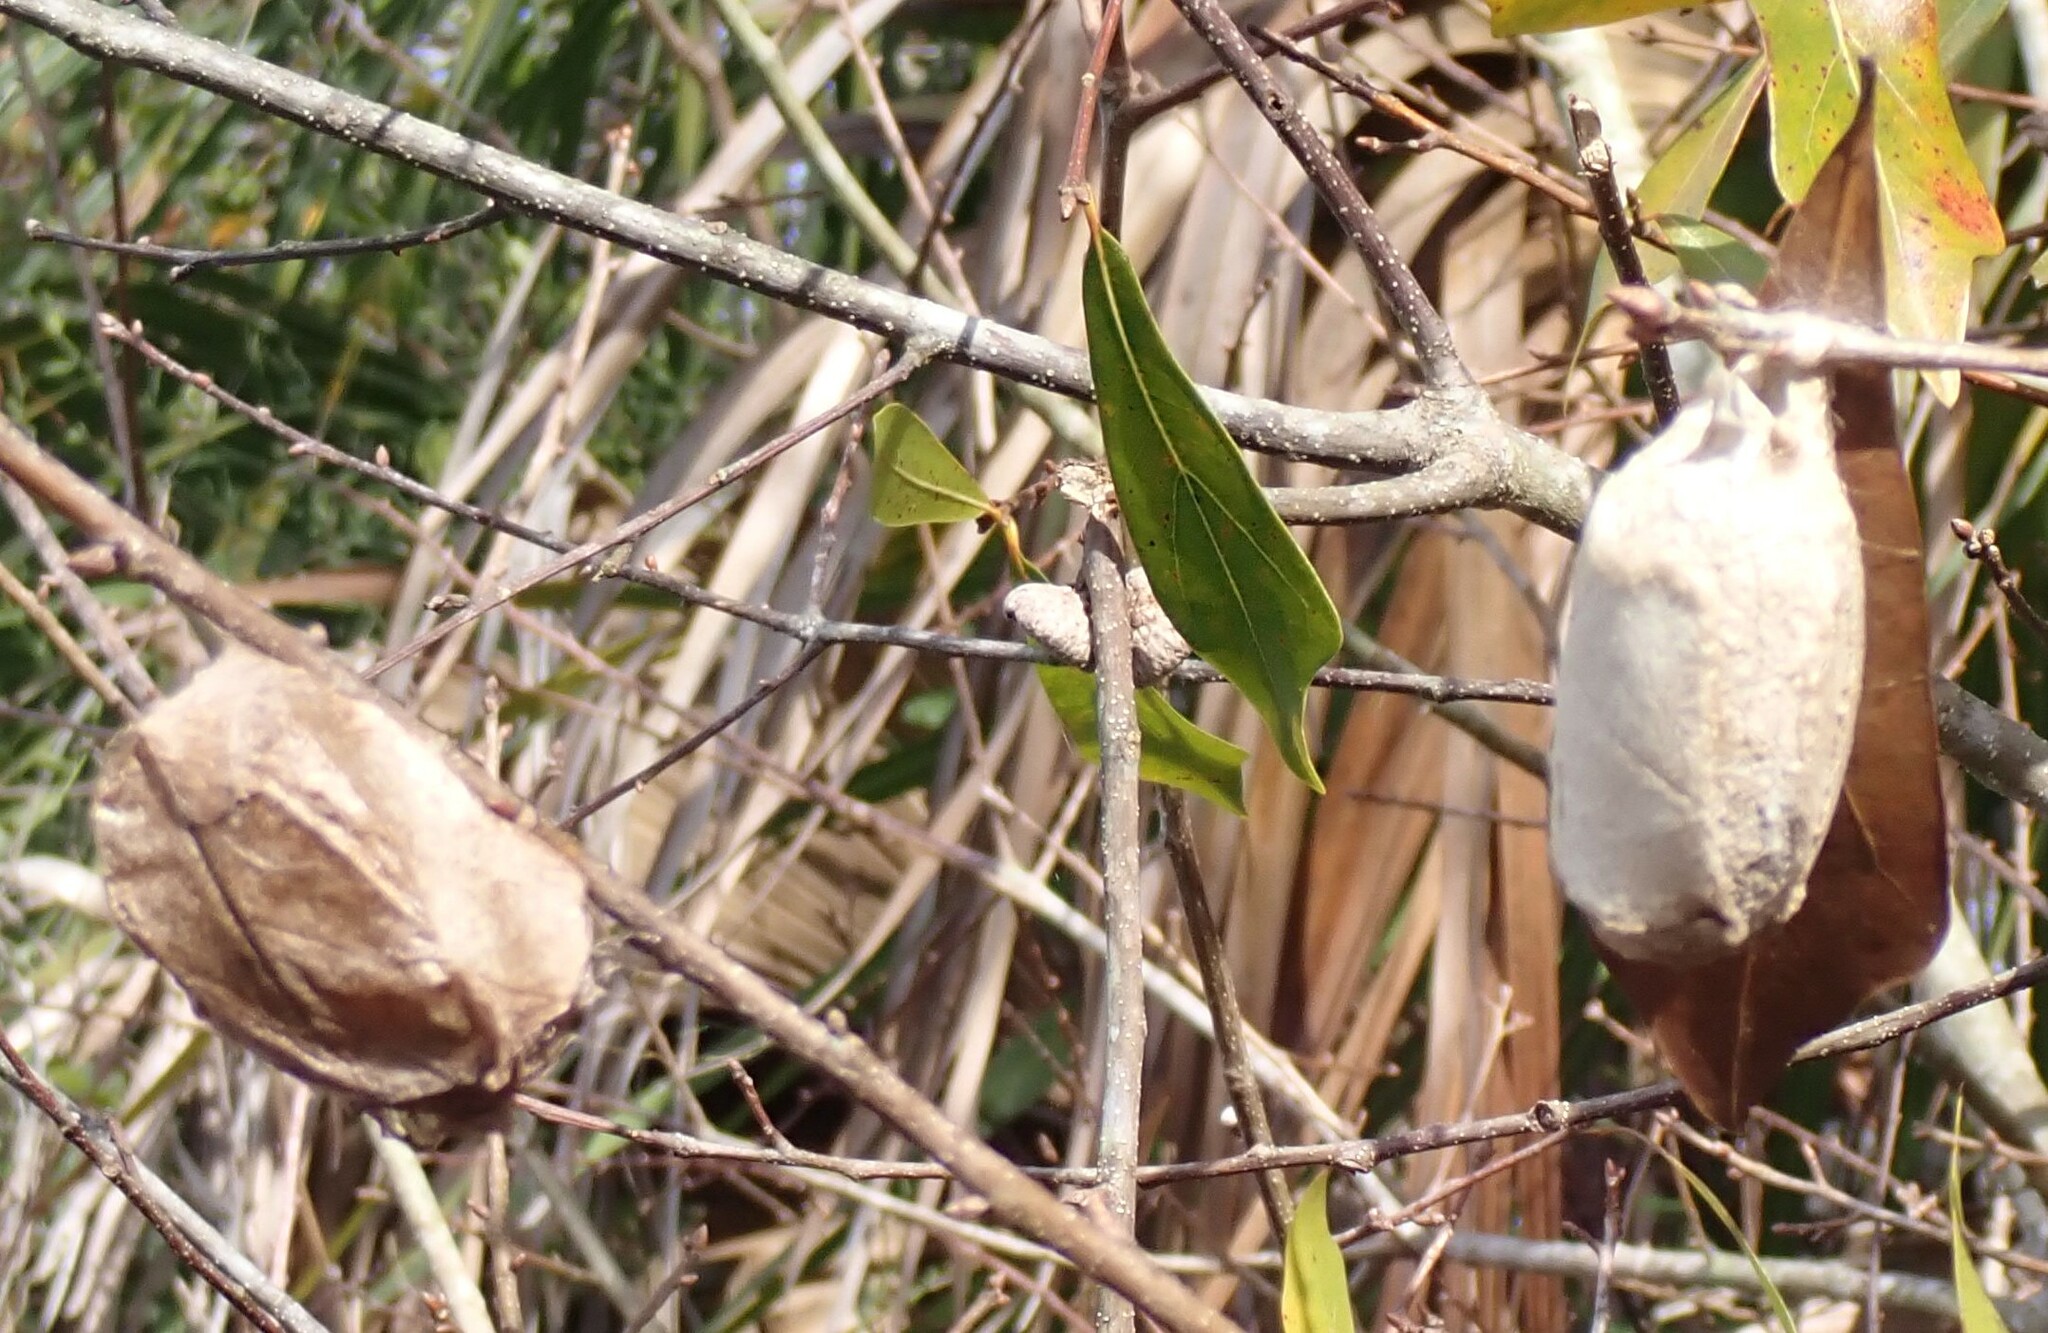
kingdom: Animalia
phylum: Arthropoda
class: Insecta
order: Lepidoptera
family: Saturniidae
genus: Antheraea
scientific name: Antheraea polyphemus
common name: Polyphemus moth
